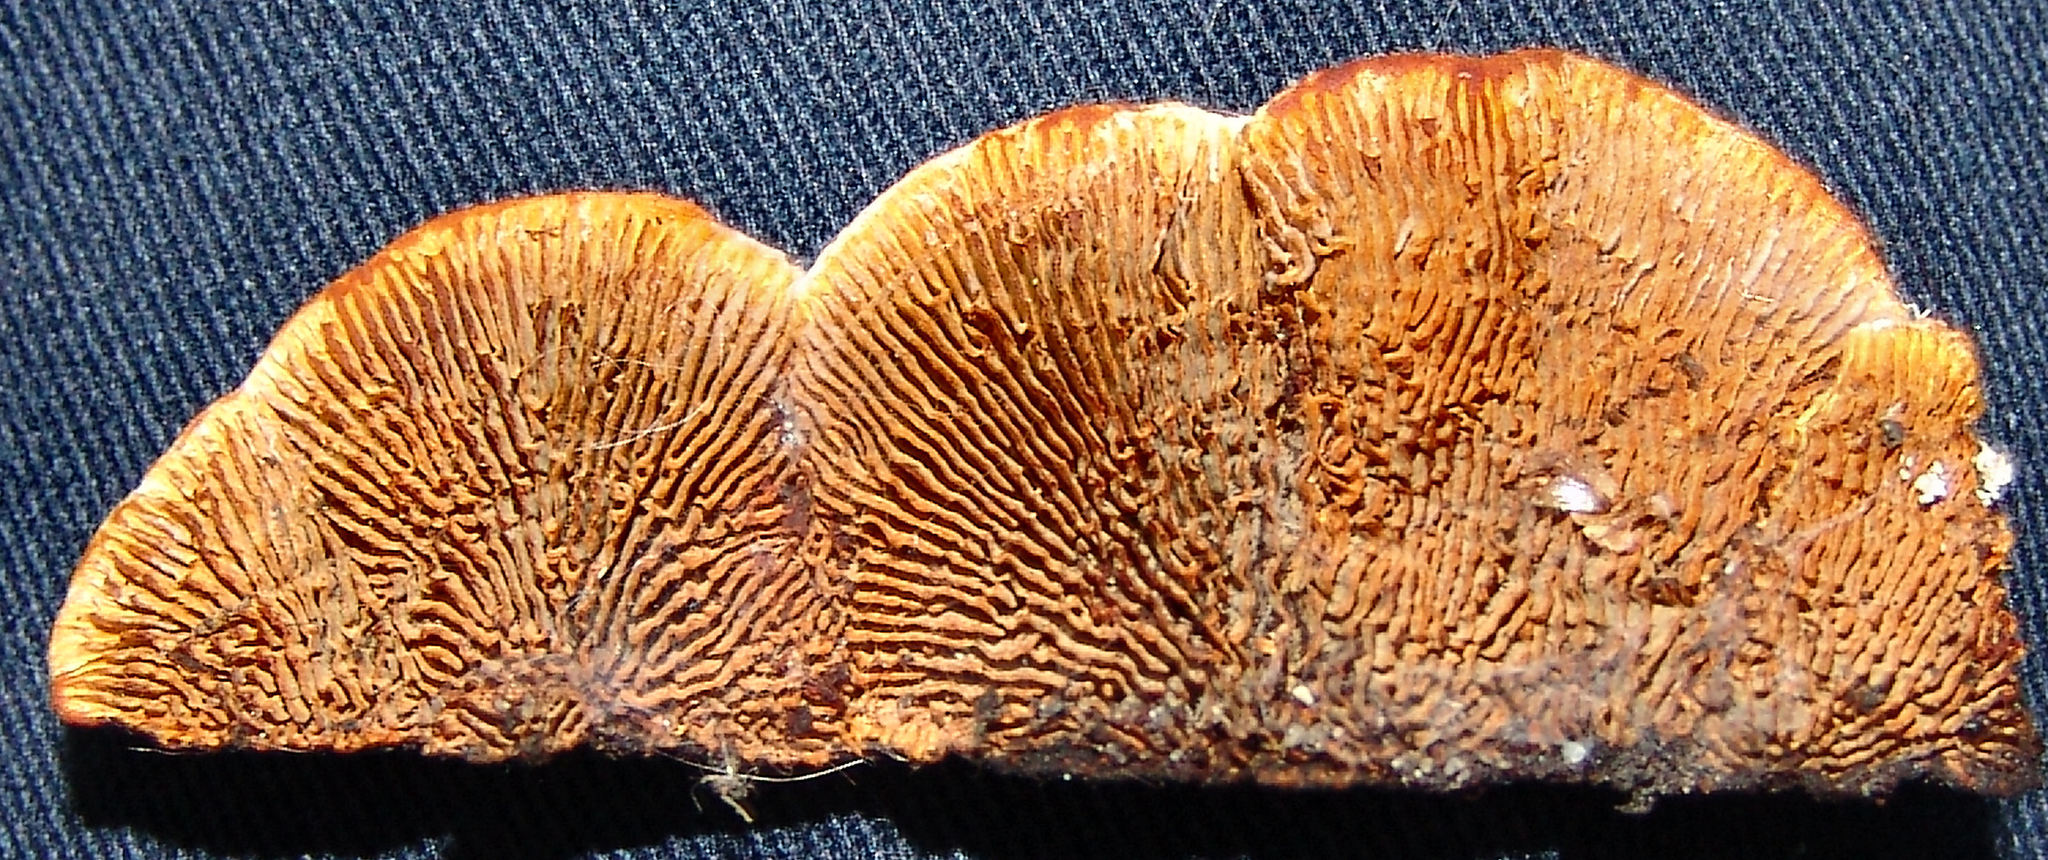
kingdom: Fungi
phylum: Basidiomycota
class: Agaricomycetes
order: Gloeophyllales
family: Gloeophyllaceae
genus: Gloeophyllum
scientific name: Gloeophyllum sepiarium
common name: Conifer mazegill
